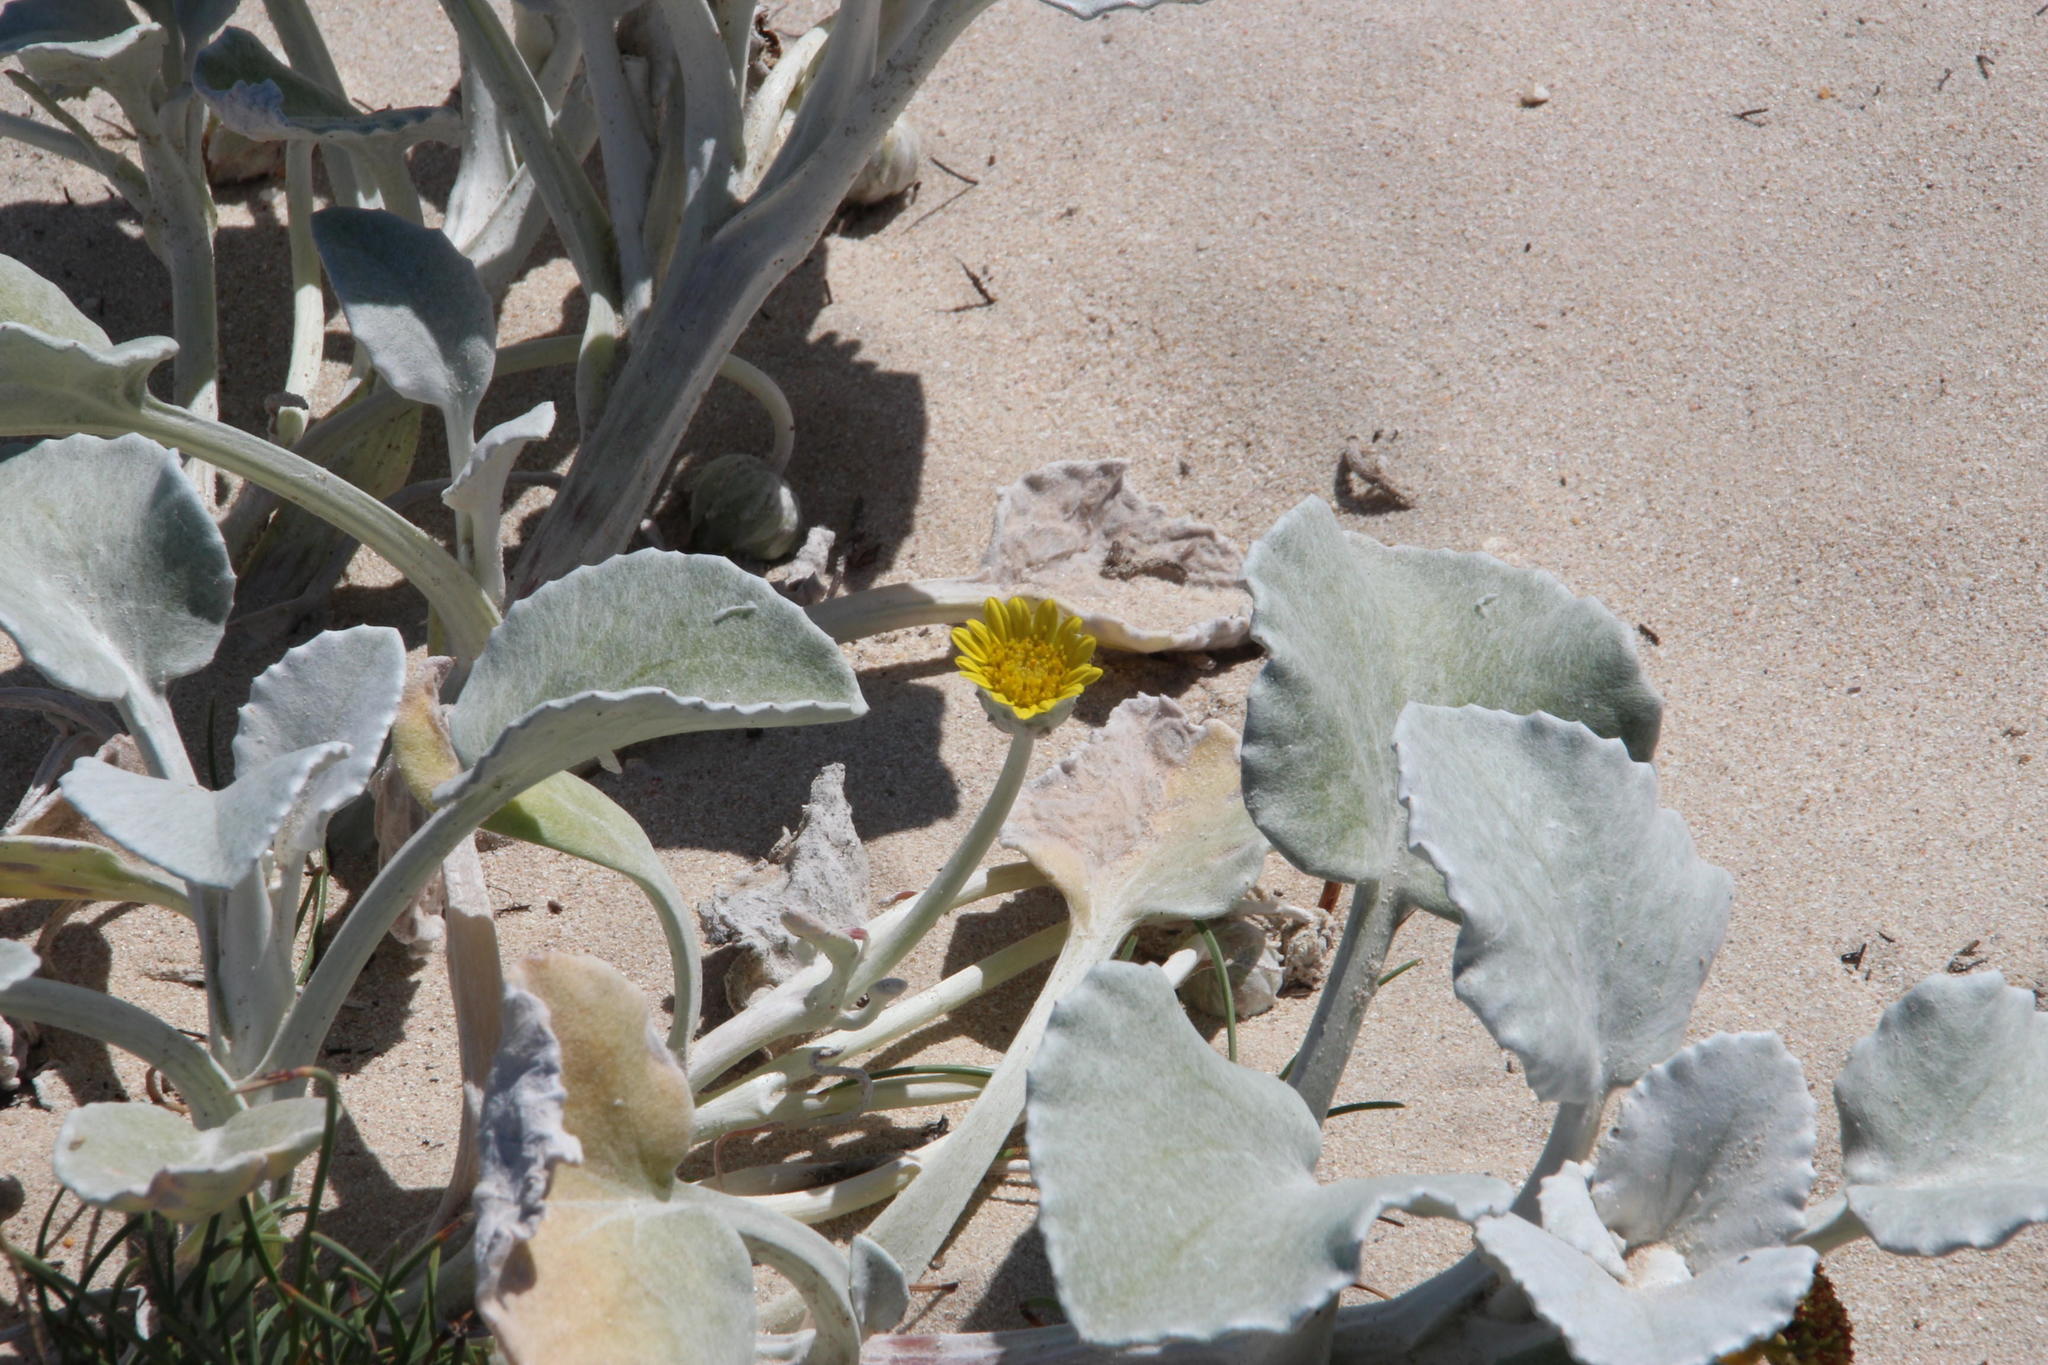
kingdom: Plantae
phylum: Tracheophyta
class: Magnoliopsida
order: Asterales
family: Asteraceae
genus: Arctotheca
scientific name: Arctotheca populifolia
